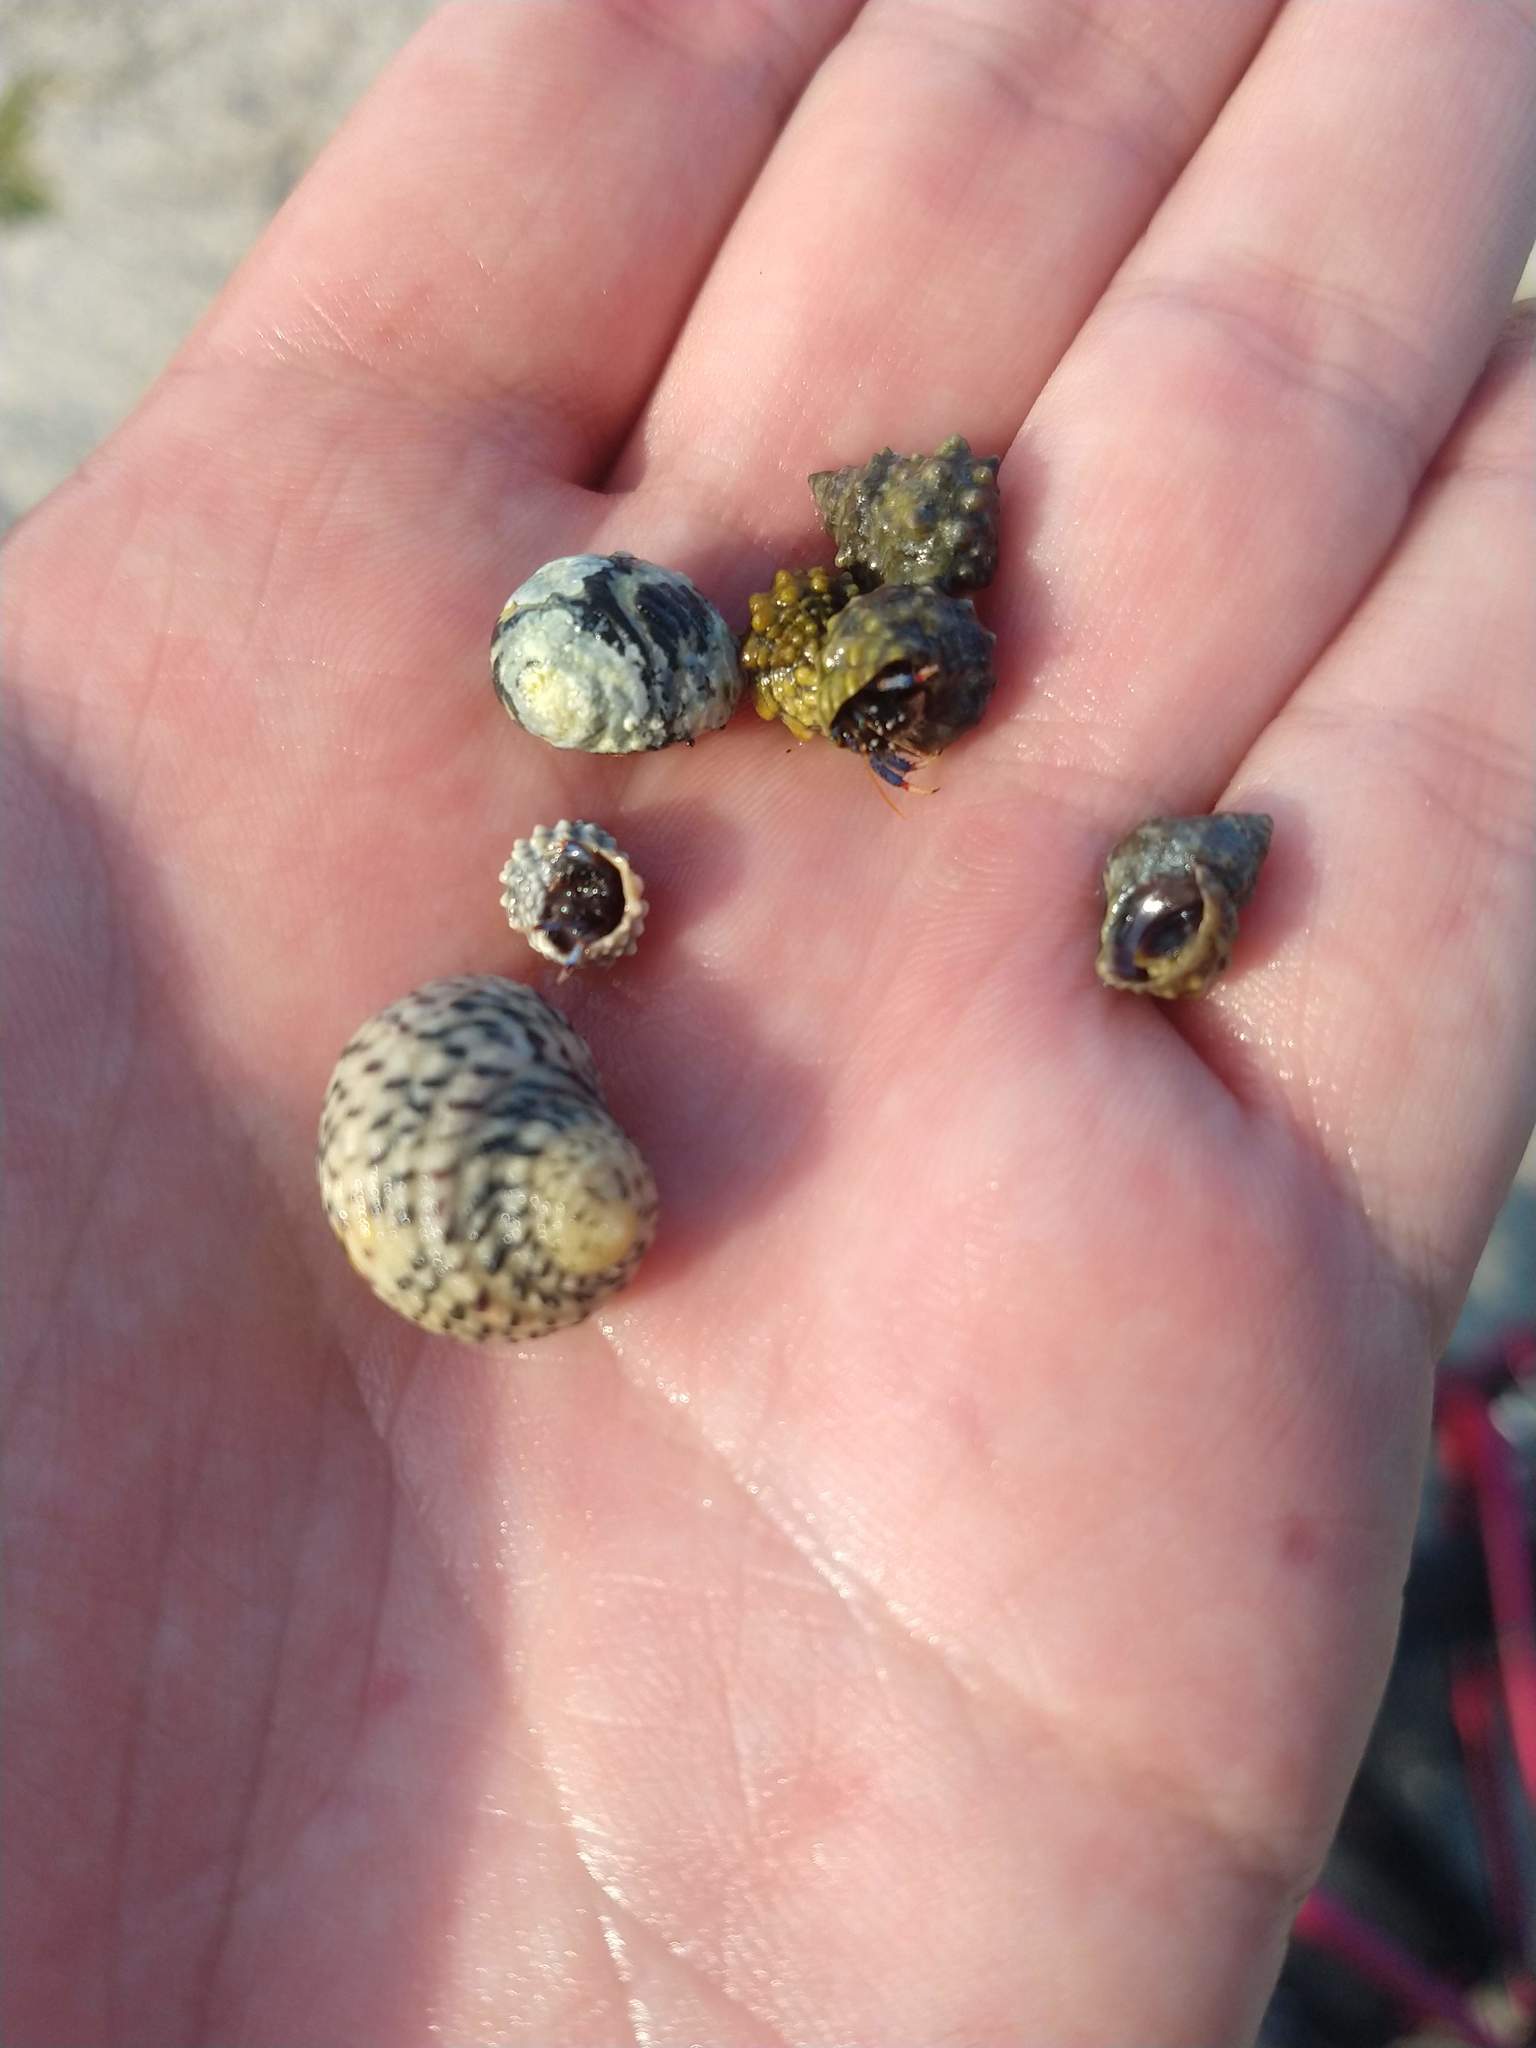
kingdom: Animalia
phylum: Arthropoda
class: Malacostraca
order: Decapoda
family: Diogenidae
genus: Clibanarius
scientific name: Clibanarius tricolor
